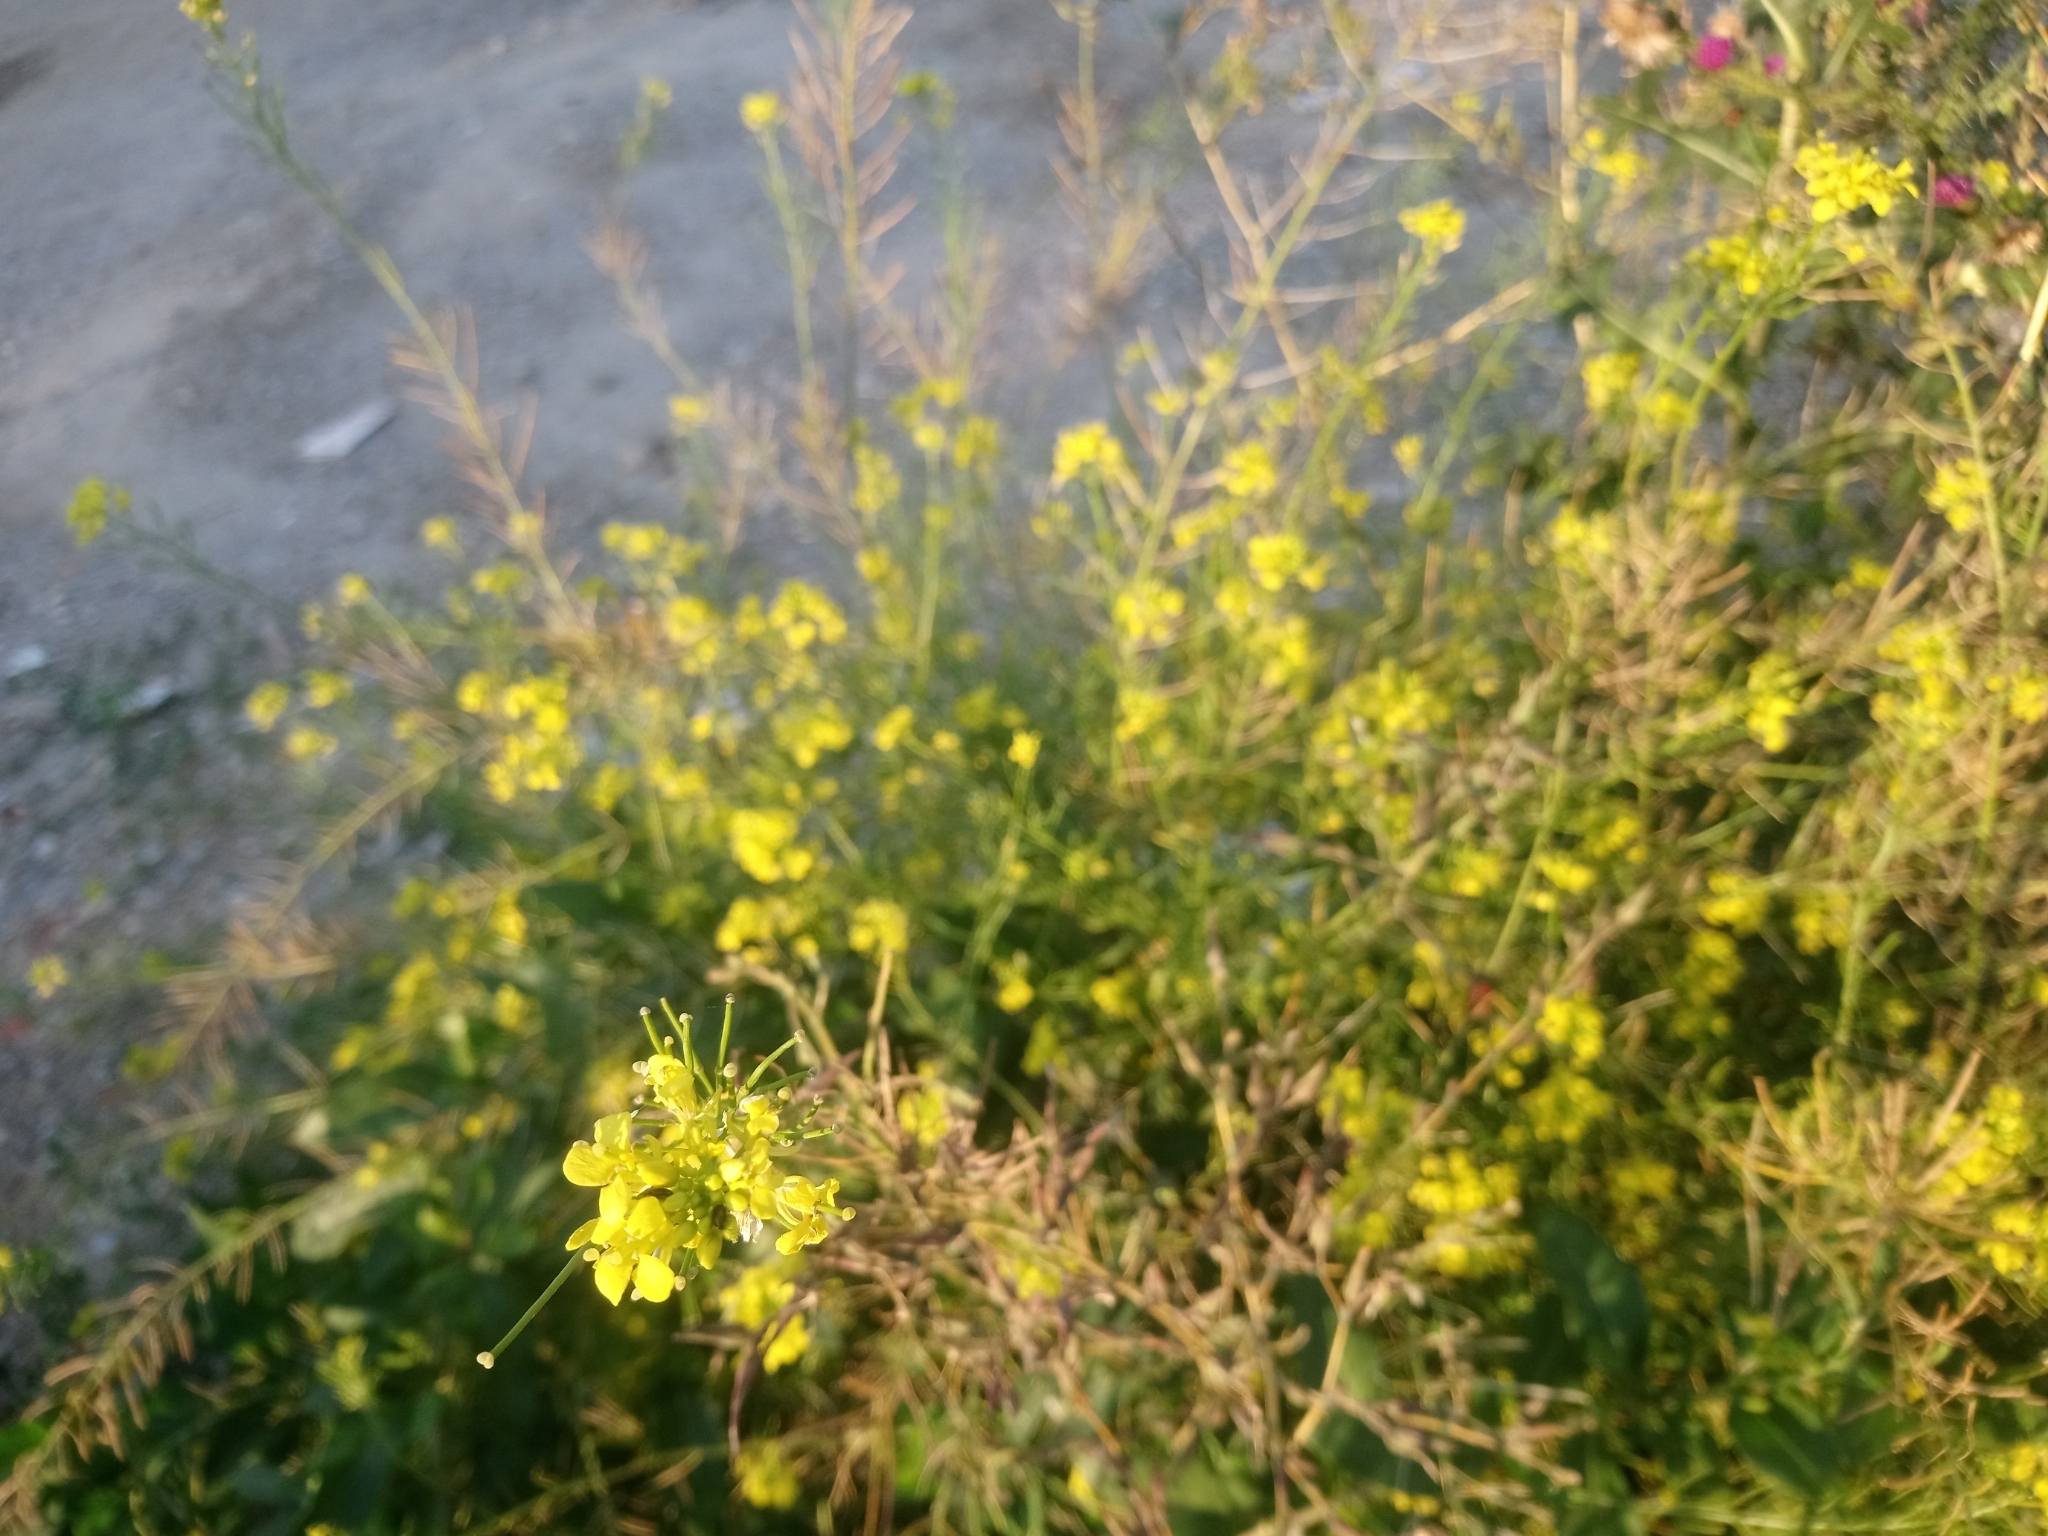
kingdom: Plantae
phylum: Tracheophyta
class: Magnoliopsida
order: Brassicales
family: Brassicaceae
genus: Sisymbrium
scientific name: Sisymbrium loeselii
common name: False london-rocket
